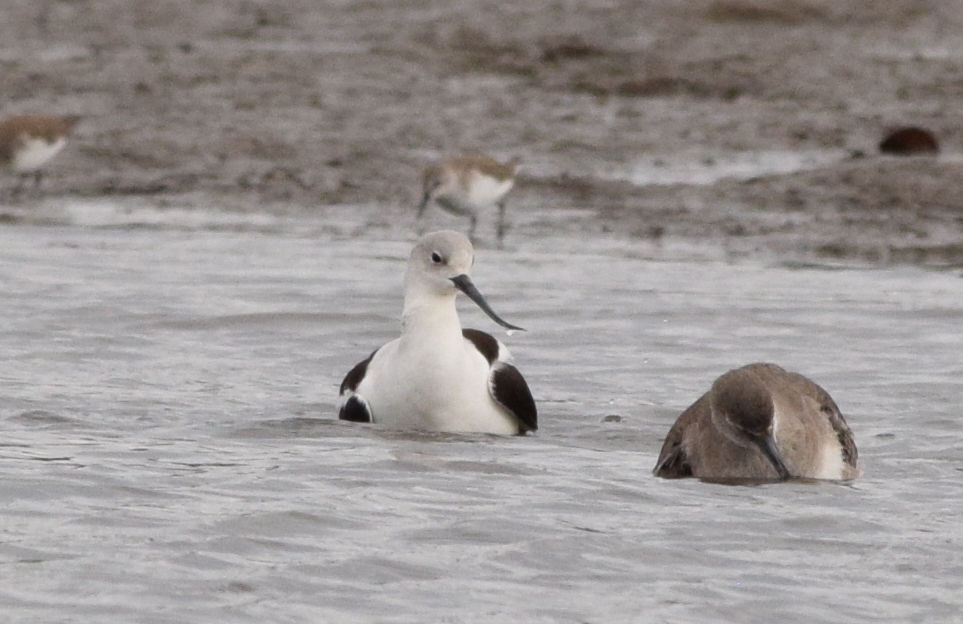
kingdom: Animalia
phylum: Chordata
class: Aves
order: Charadriiformes
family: Recurvirostridae
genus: Recurvirostra
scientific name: Recurvirostra americana
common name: American avocet
